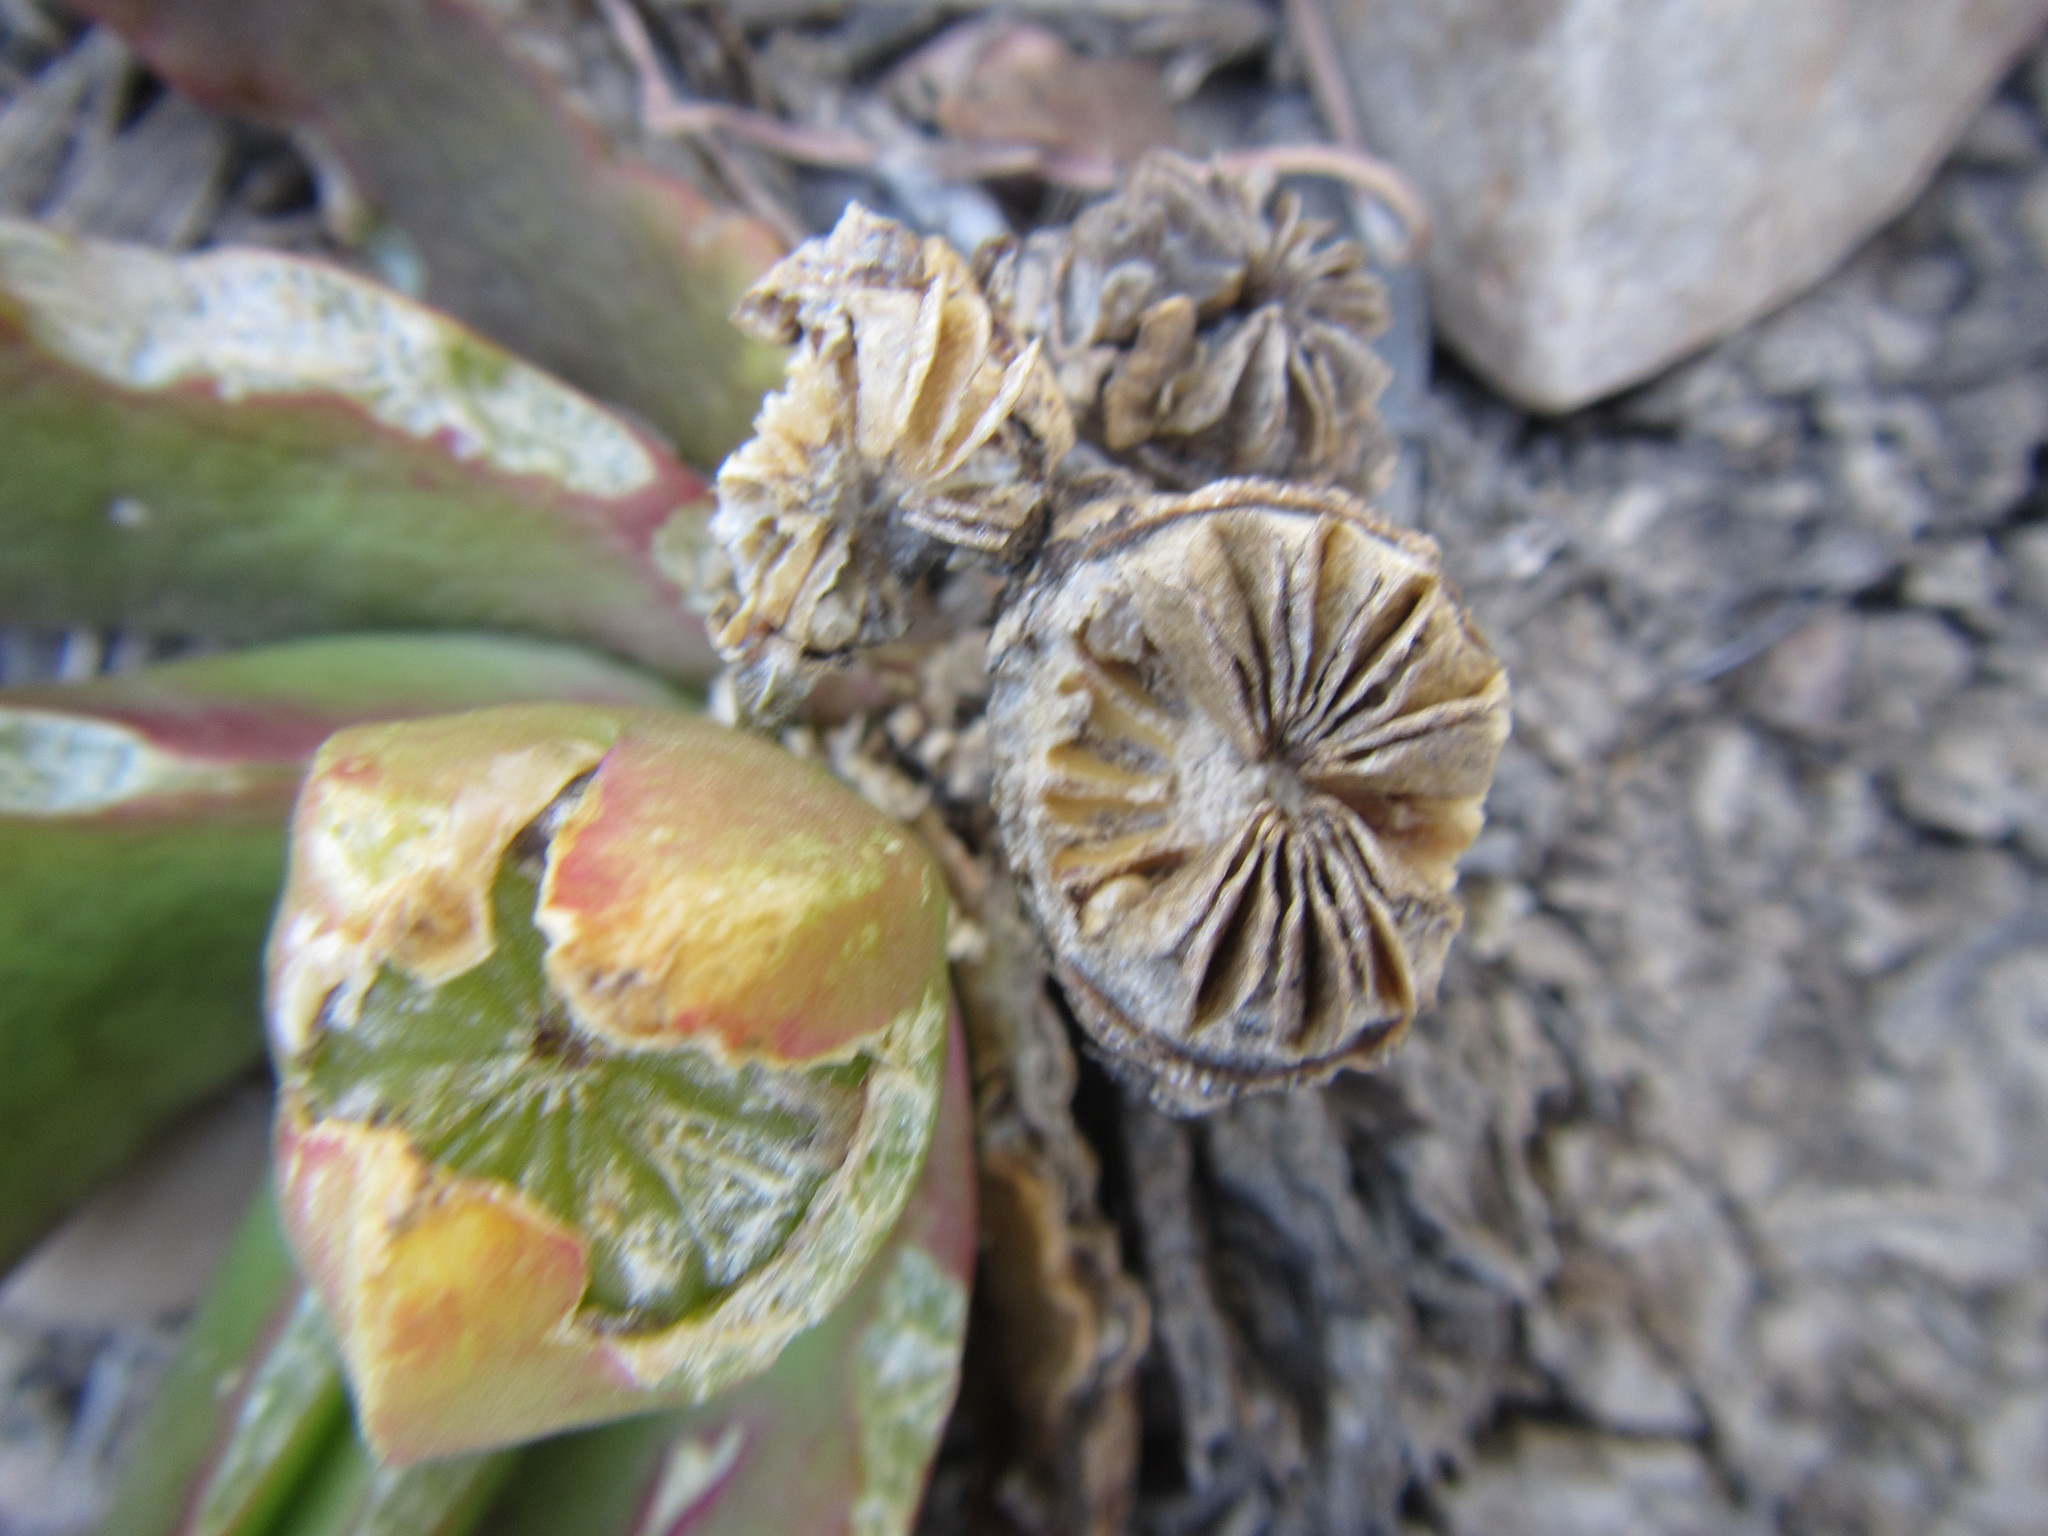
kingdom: Plantae
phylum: Tracheophyta
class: Magnoliopsida
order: Caryophyllales
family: Aizoaceae
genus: Glottiphyllum
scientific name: Glottiphyllum longum
